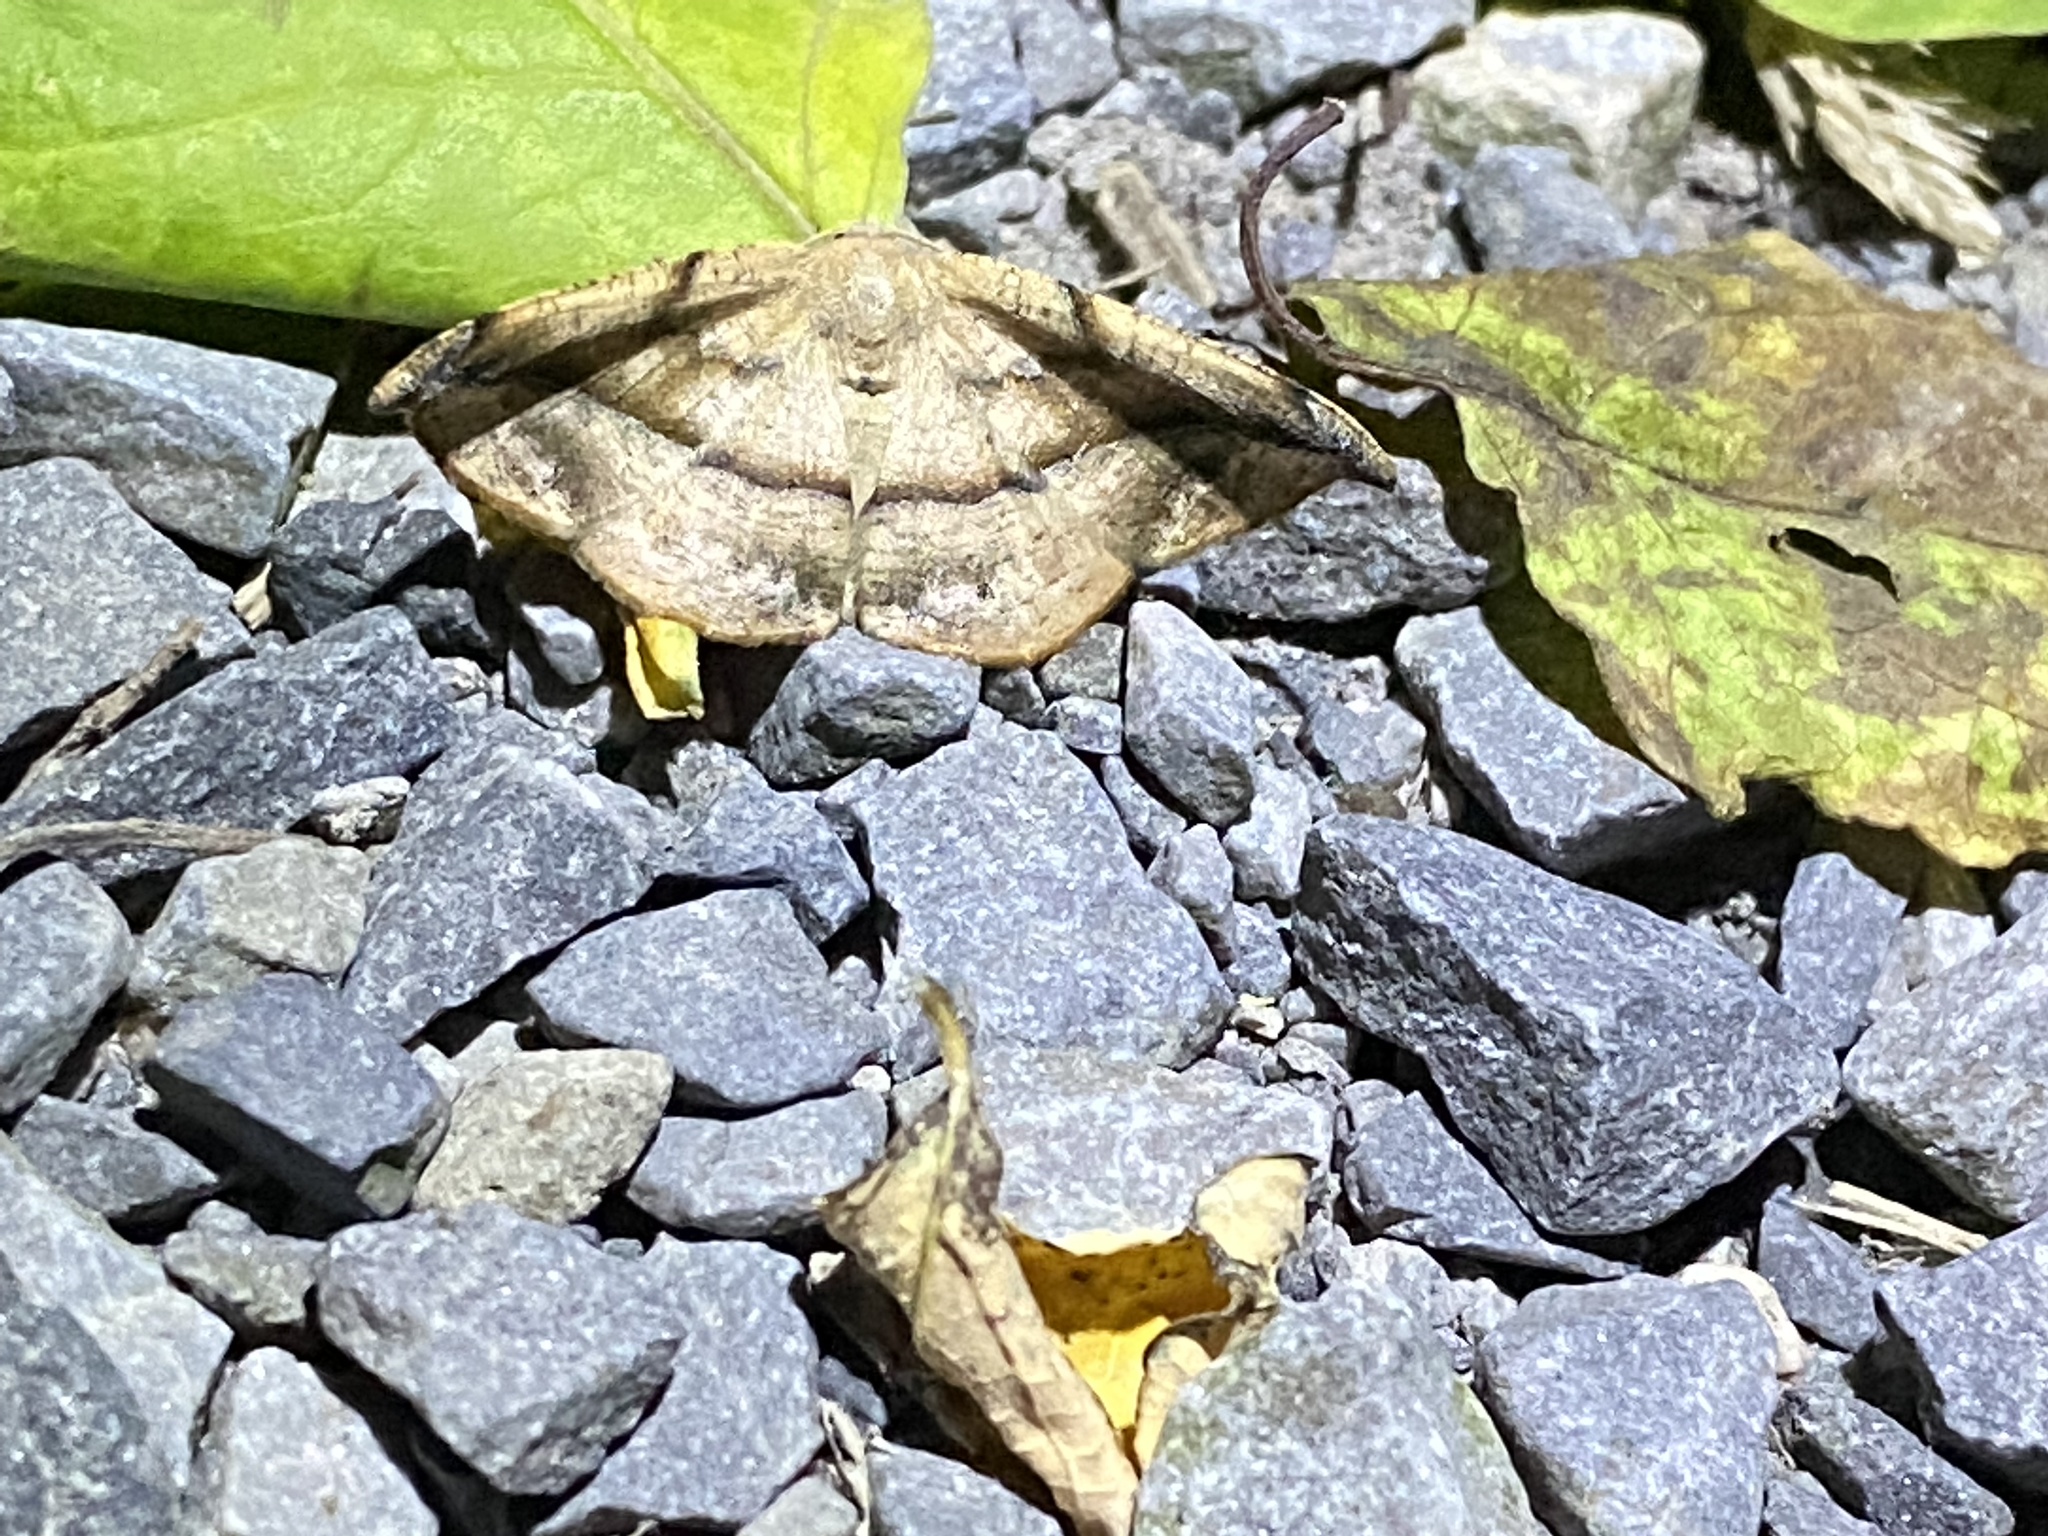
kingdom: Animalia
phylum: Arthropoda
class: Insecta
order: Lepidoptera
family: Geometridae
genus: Patalene
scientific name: Patalene olyzonaria
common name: Juniper geometer moth
